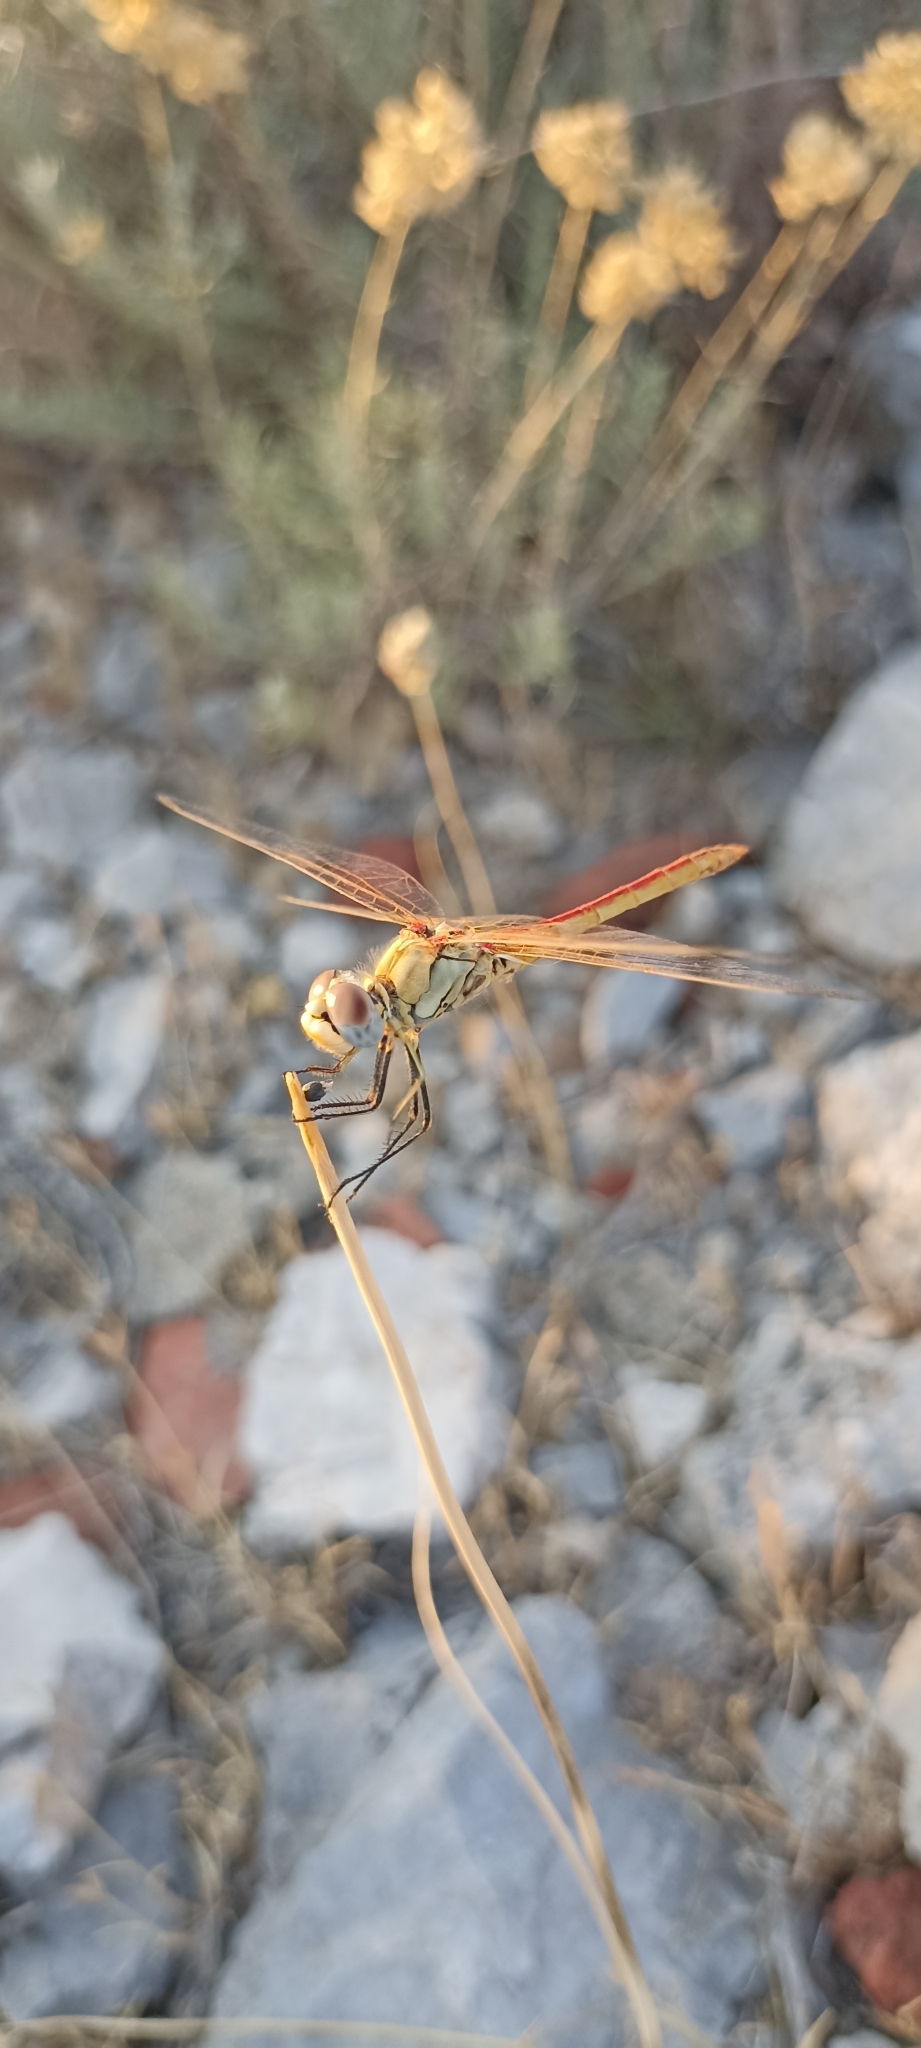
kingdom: Animalia
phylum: Arthropoda
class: Insecta
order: Odonata
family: Libellulidae
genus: Sympetrum
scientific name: Sympetrum fonscolombii
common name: Red-veined darter
